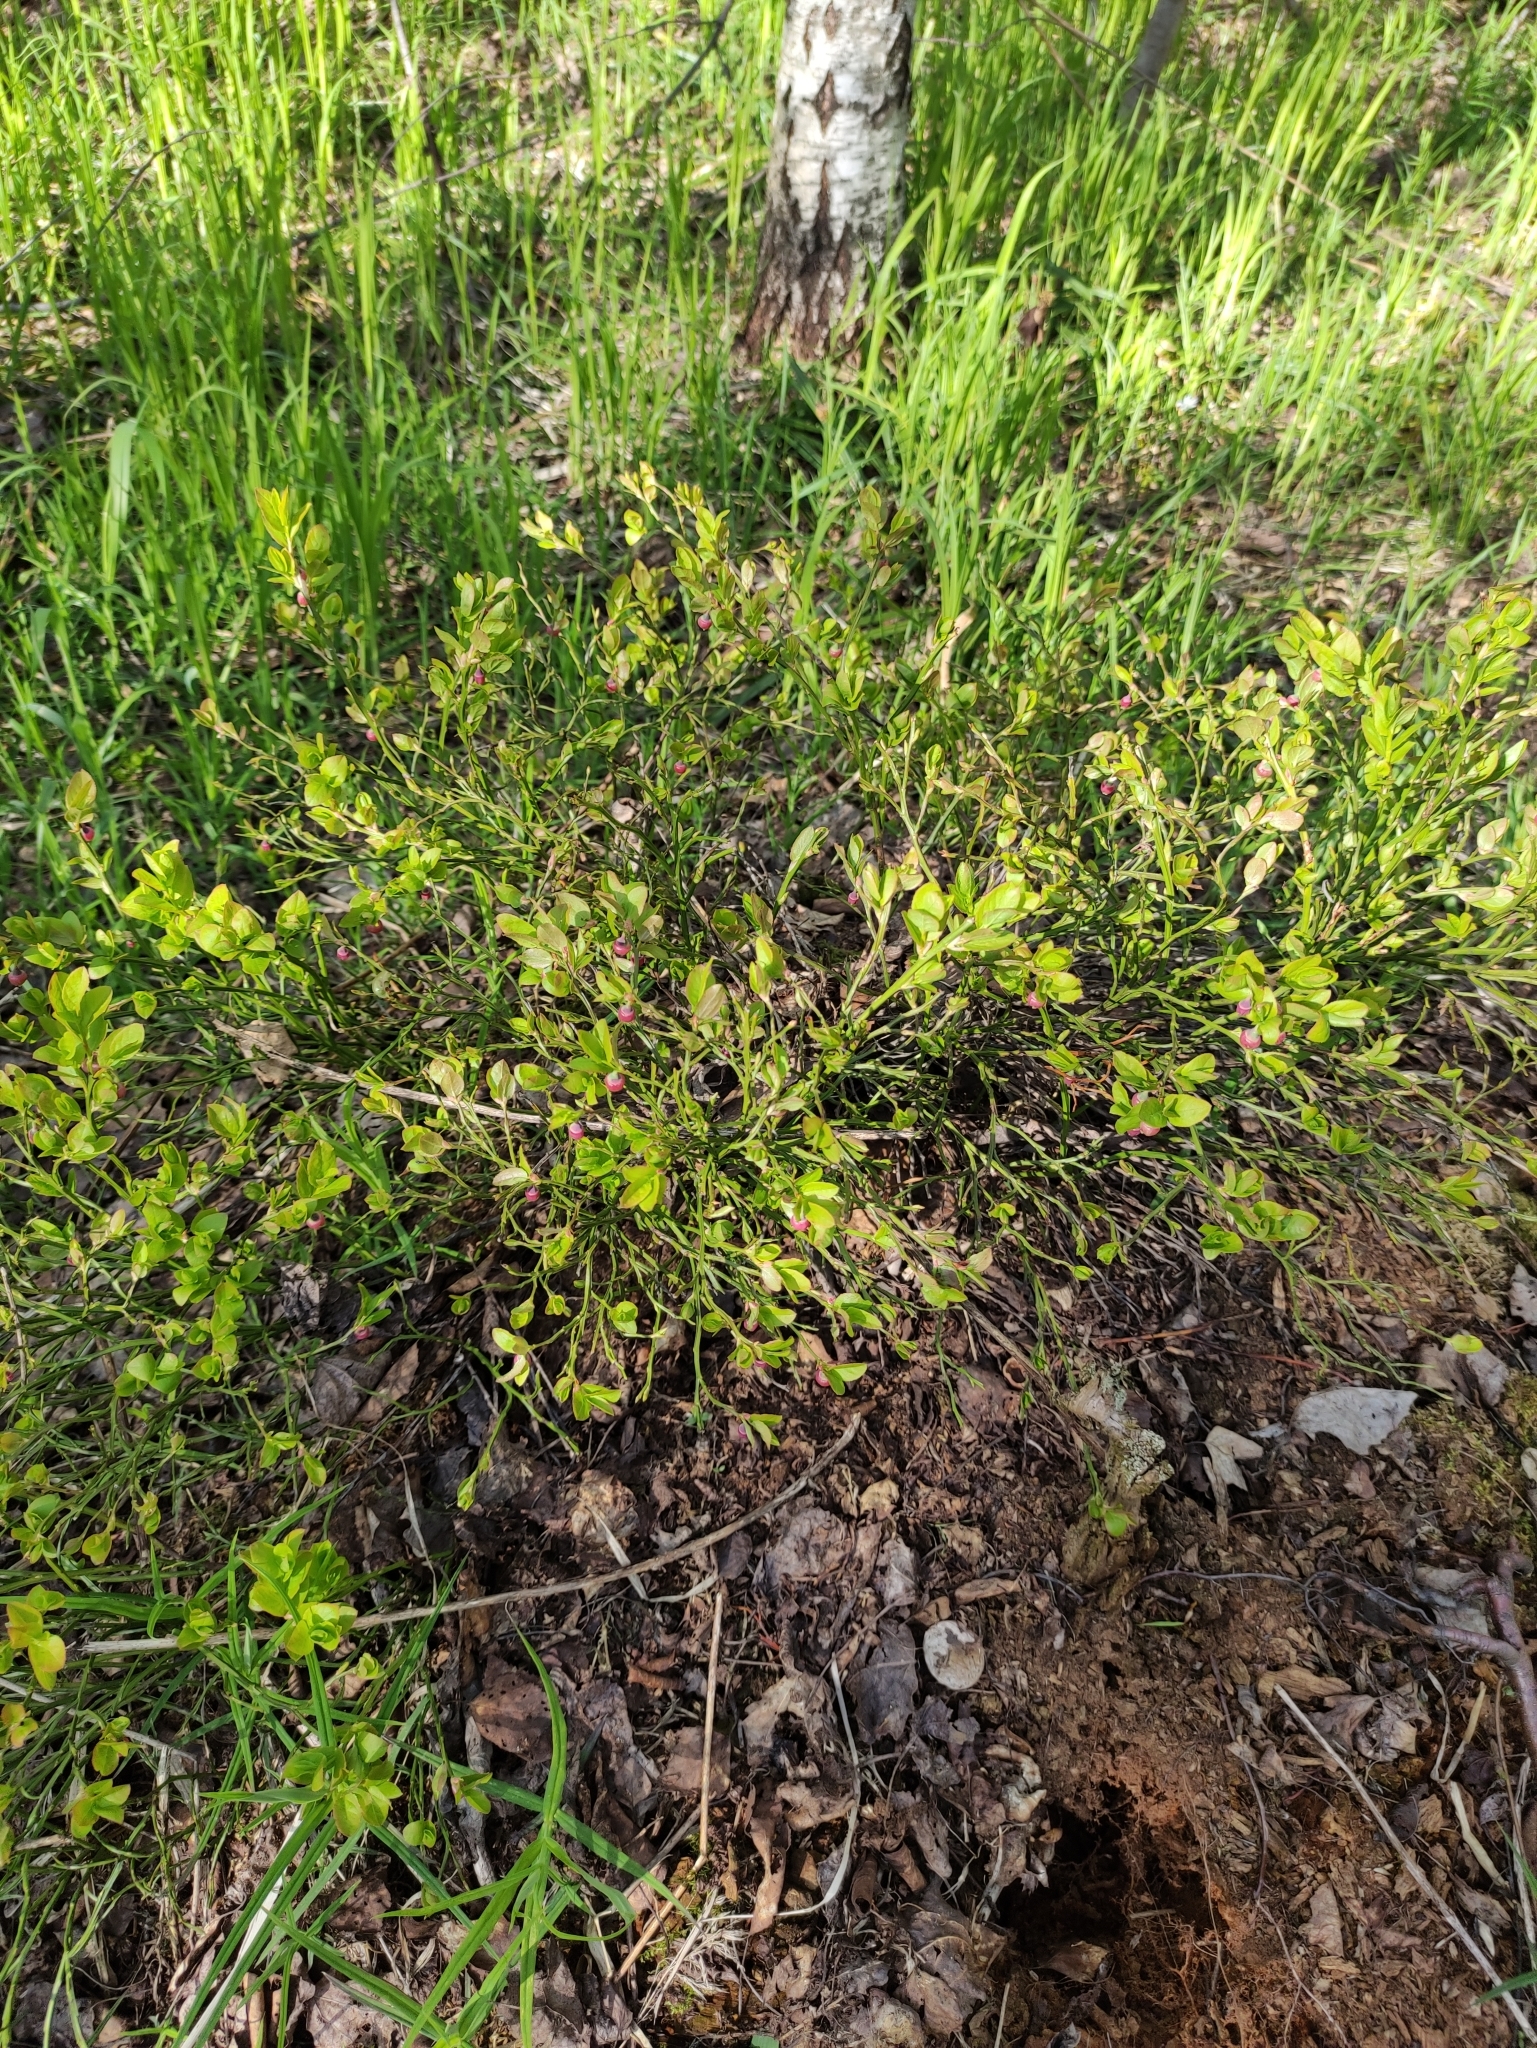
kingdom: Plantae
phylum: Tracheophyta
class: Magnoliopsida
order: Ericales
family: Ericaceae
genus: Vaccinium
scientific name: Vaccinium myrtillus
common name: Bilberry
